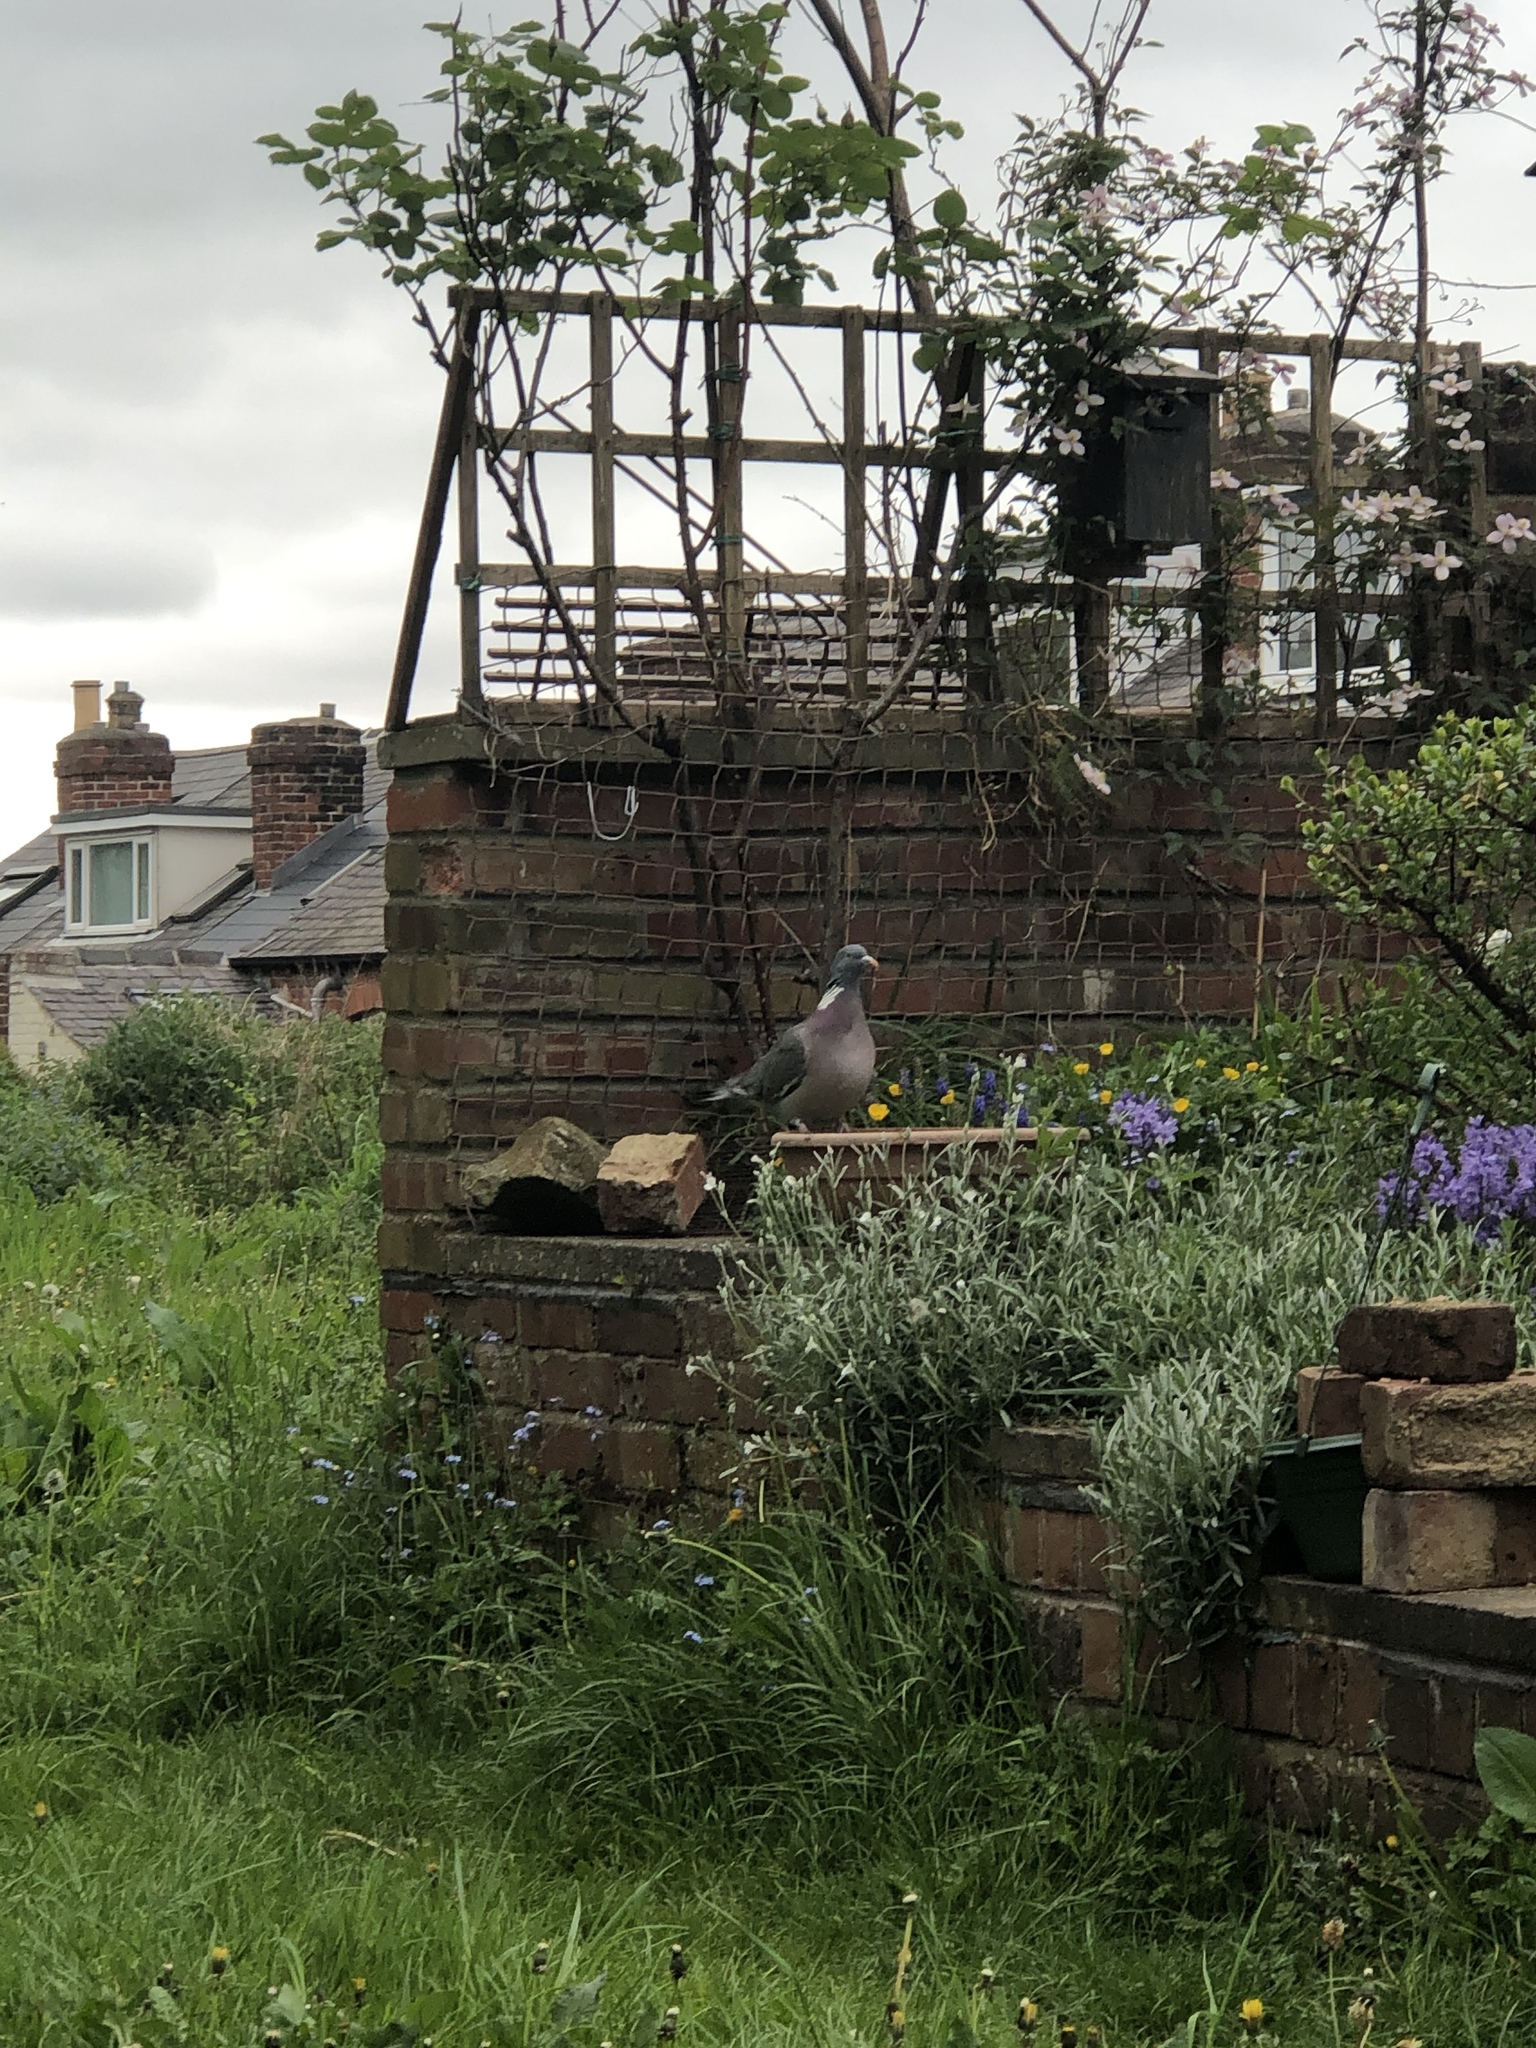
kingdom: Animalia
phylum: Chordata
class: Aves
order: Columbiformes
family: Columbidae
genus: Columba
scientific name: Columba palumbus
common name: Common wood pigeon
